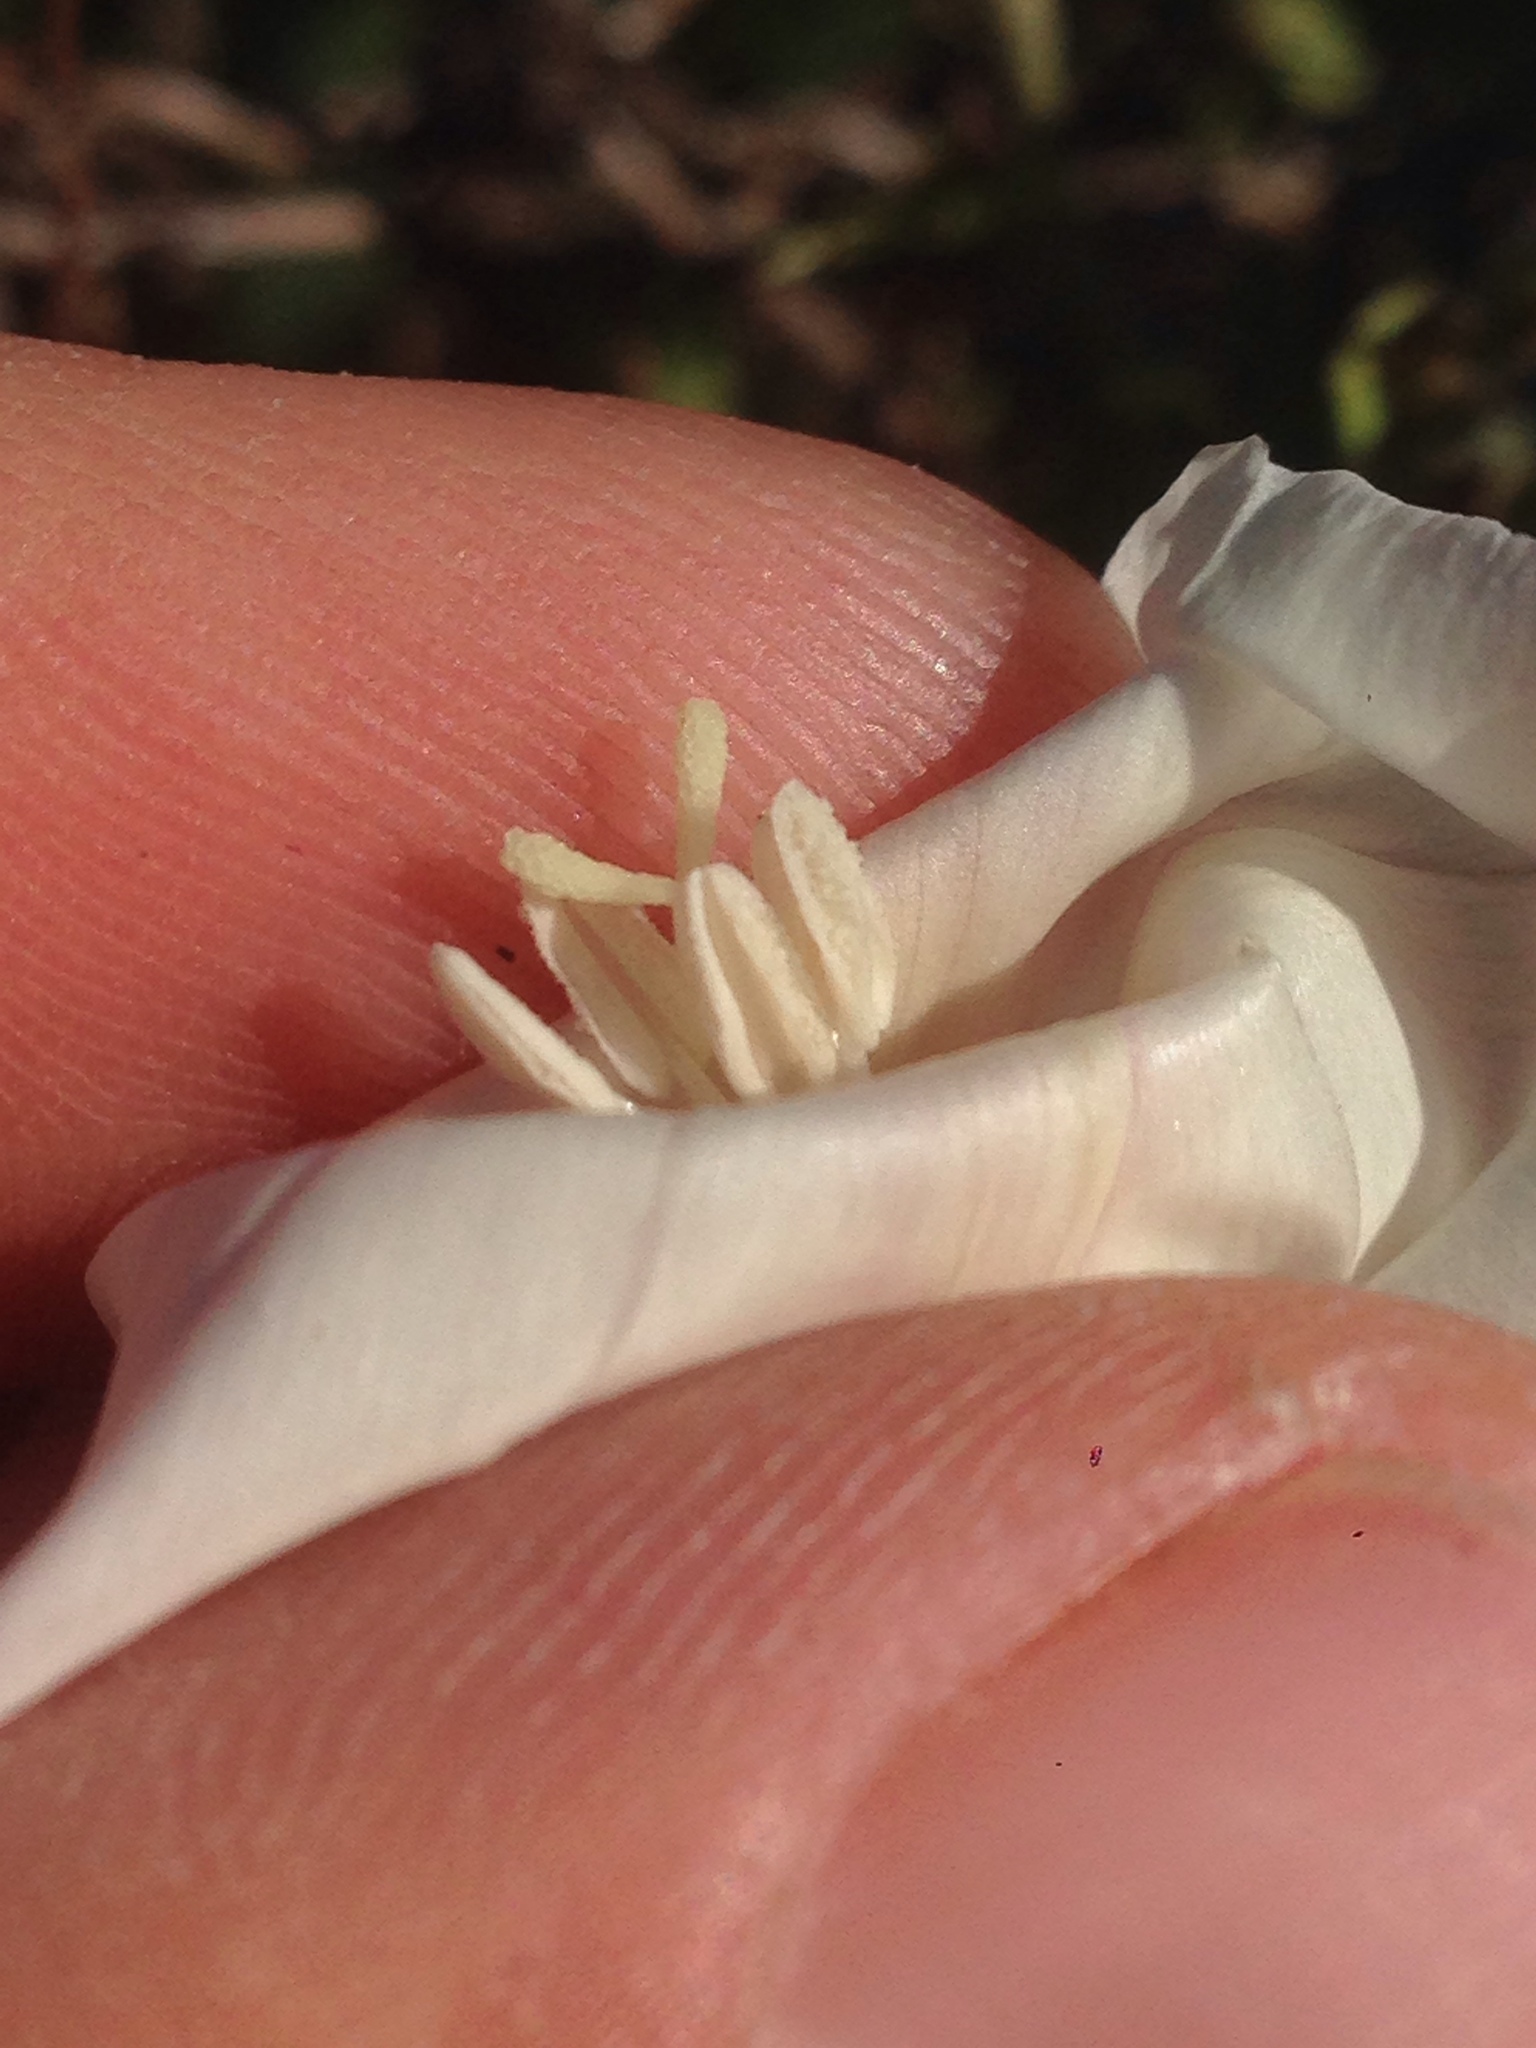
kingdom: Plantae
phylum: Tracheophyta
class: Magnoliopsida
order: Solanales
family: Convolvulaceae
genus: Calystegia
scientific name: Calystegia macrostegia
